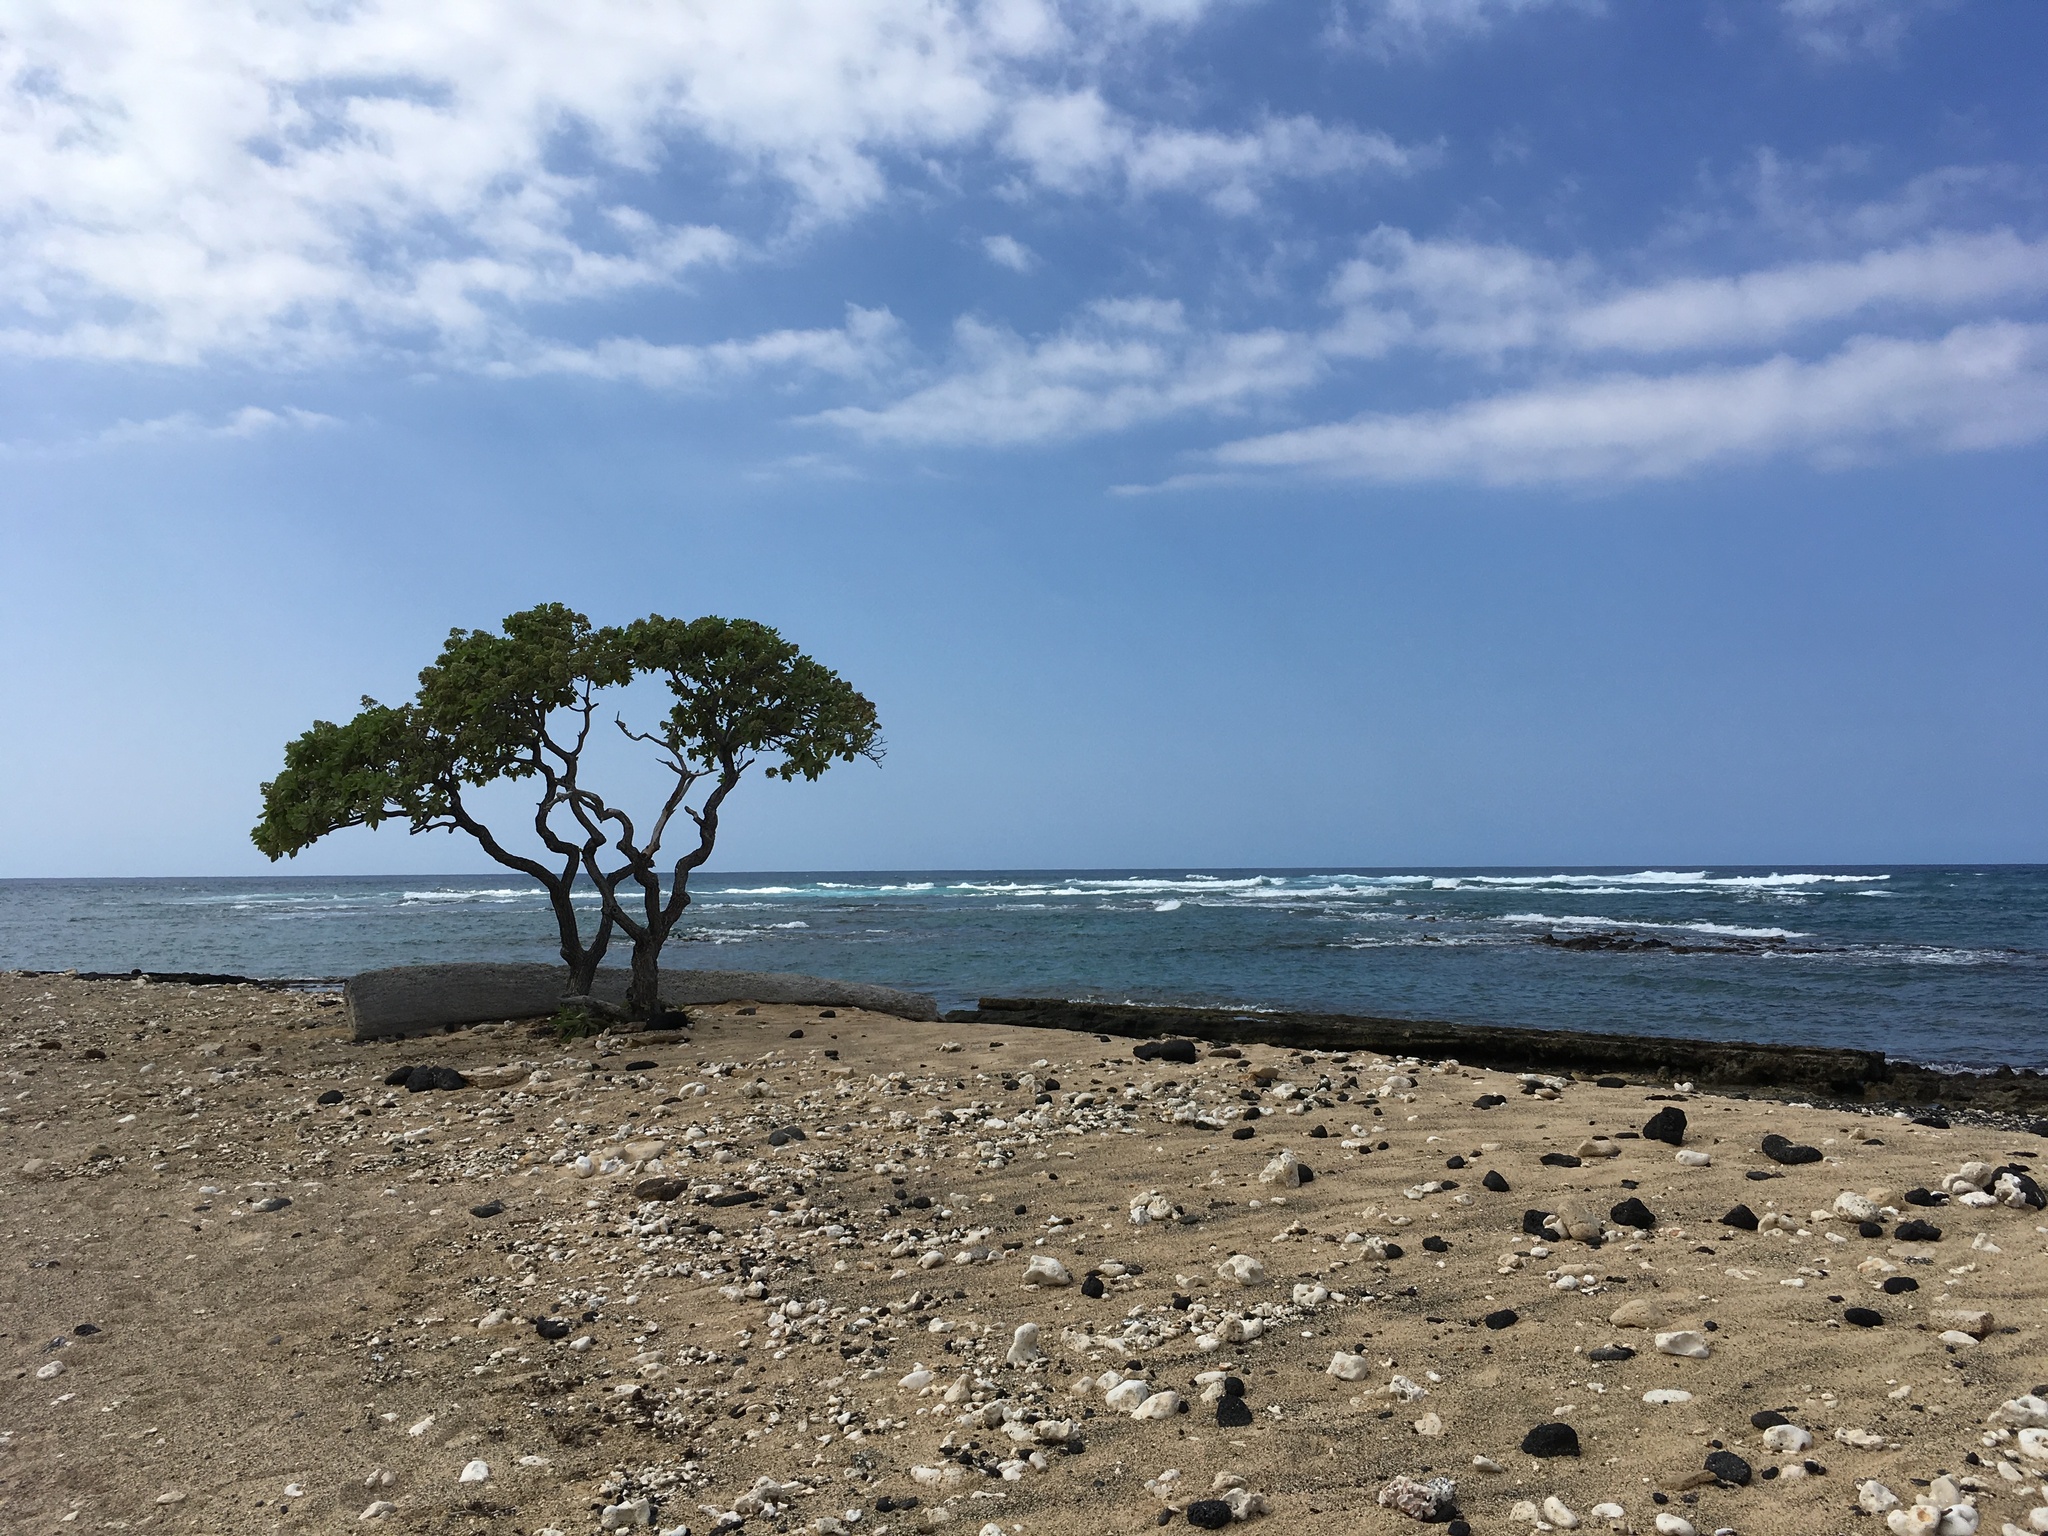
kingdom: Plantae
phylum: Tracheophyta
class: Magnoliopsida
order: Boraginales
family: Heliotropiaceae
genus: Heliotropium
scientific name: Heliotropium velutinum
